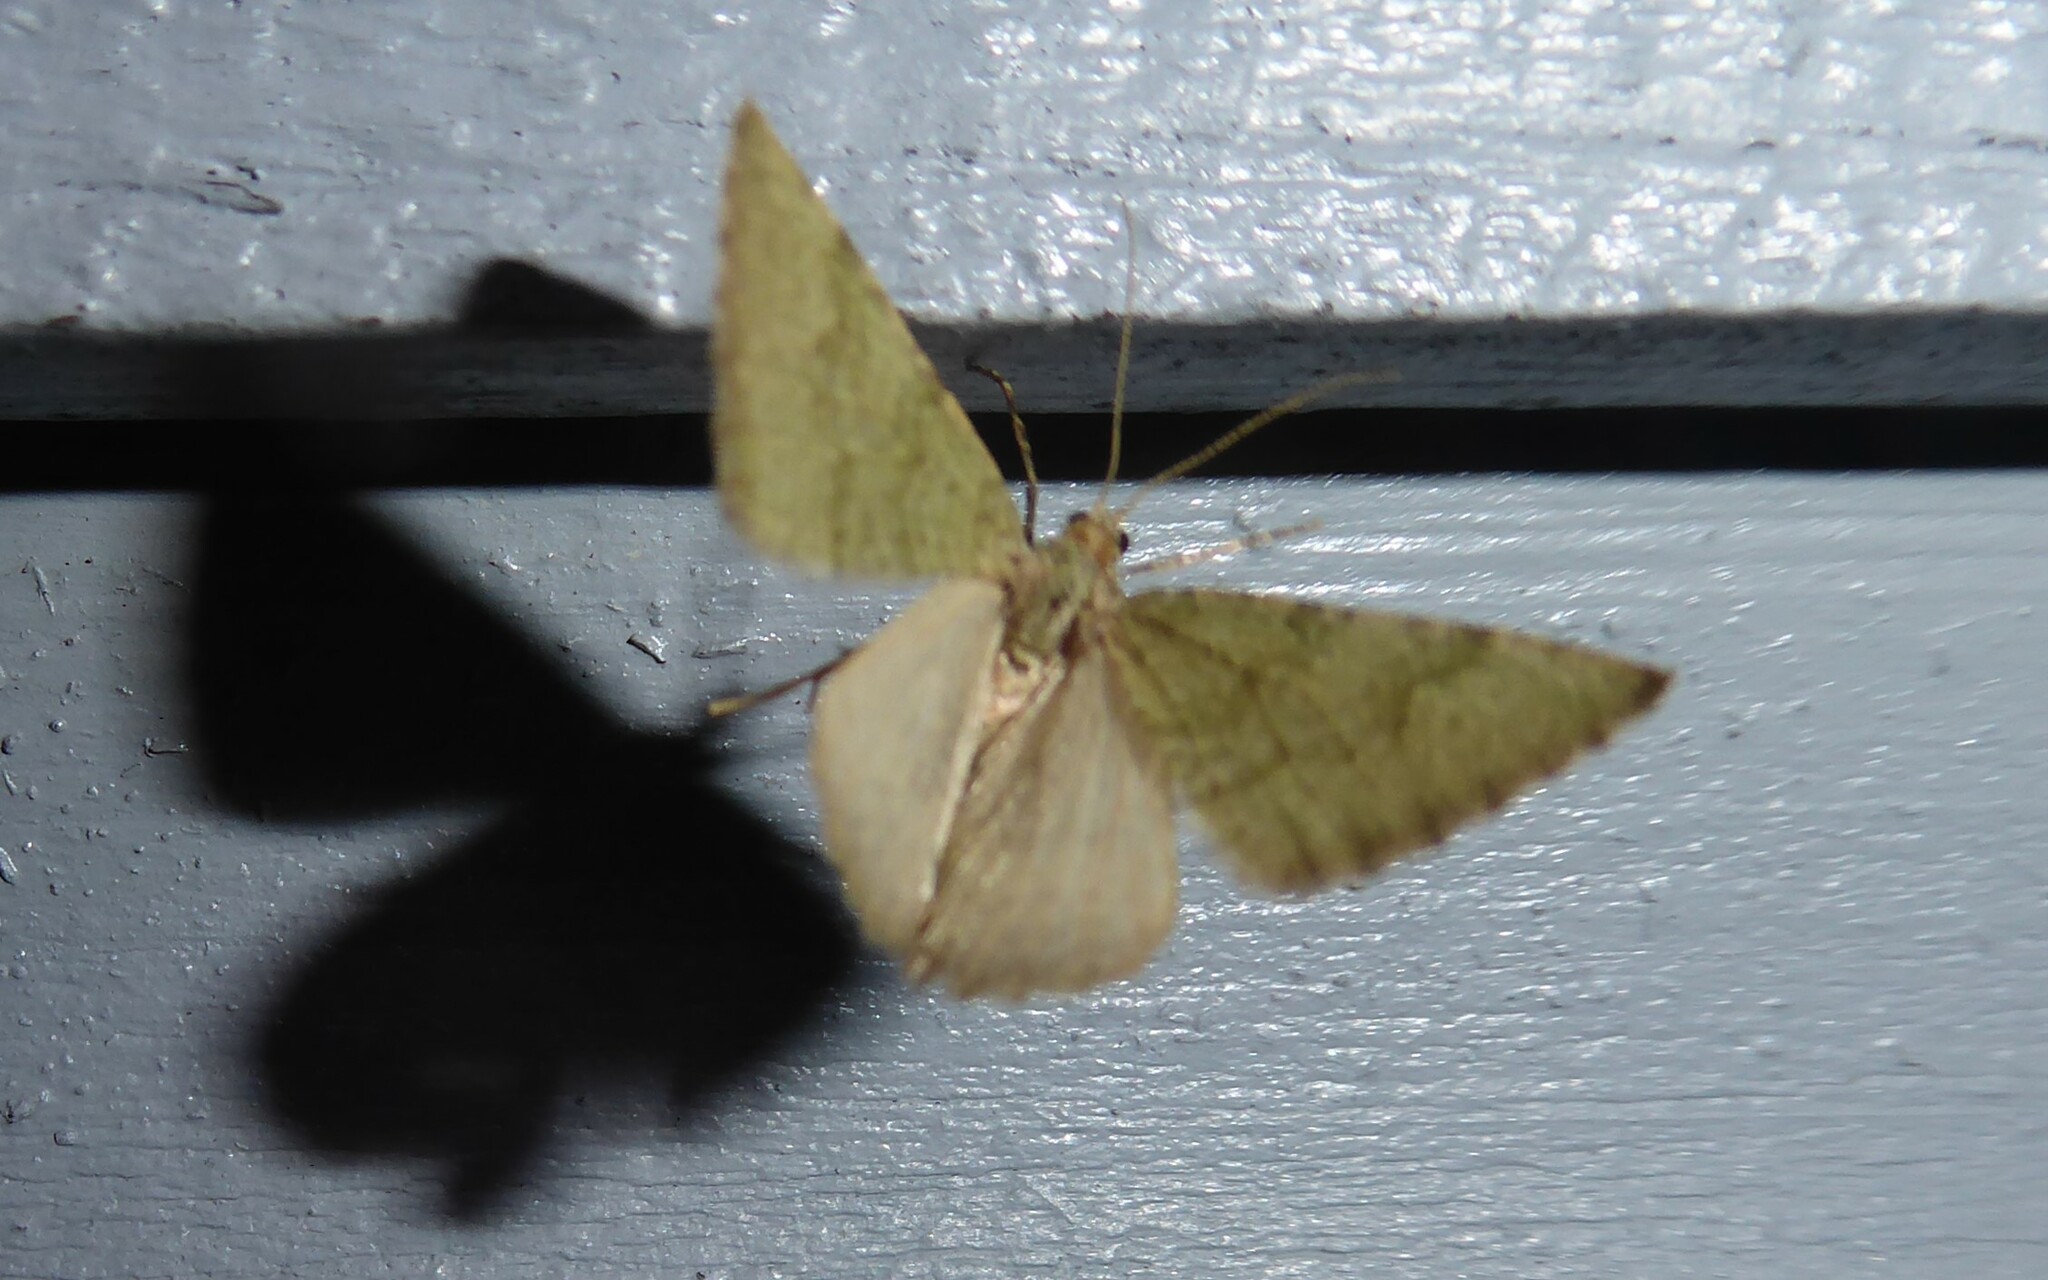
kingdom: Animalia
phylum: Arthropoda
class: Insecta
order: Lepidoptera
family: Geometridae
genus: Epyaxa
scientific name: Epyaxa rosearia
